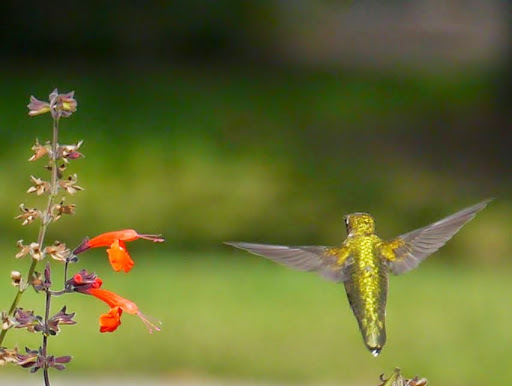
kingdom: Animalia
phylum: Chordata
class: Aves
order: Apodiformes
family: Trochilidae
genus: Archilochus
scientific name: Archilochus colubris
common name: Ruby-throated hummingbird
